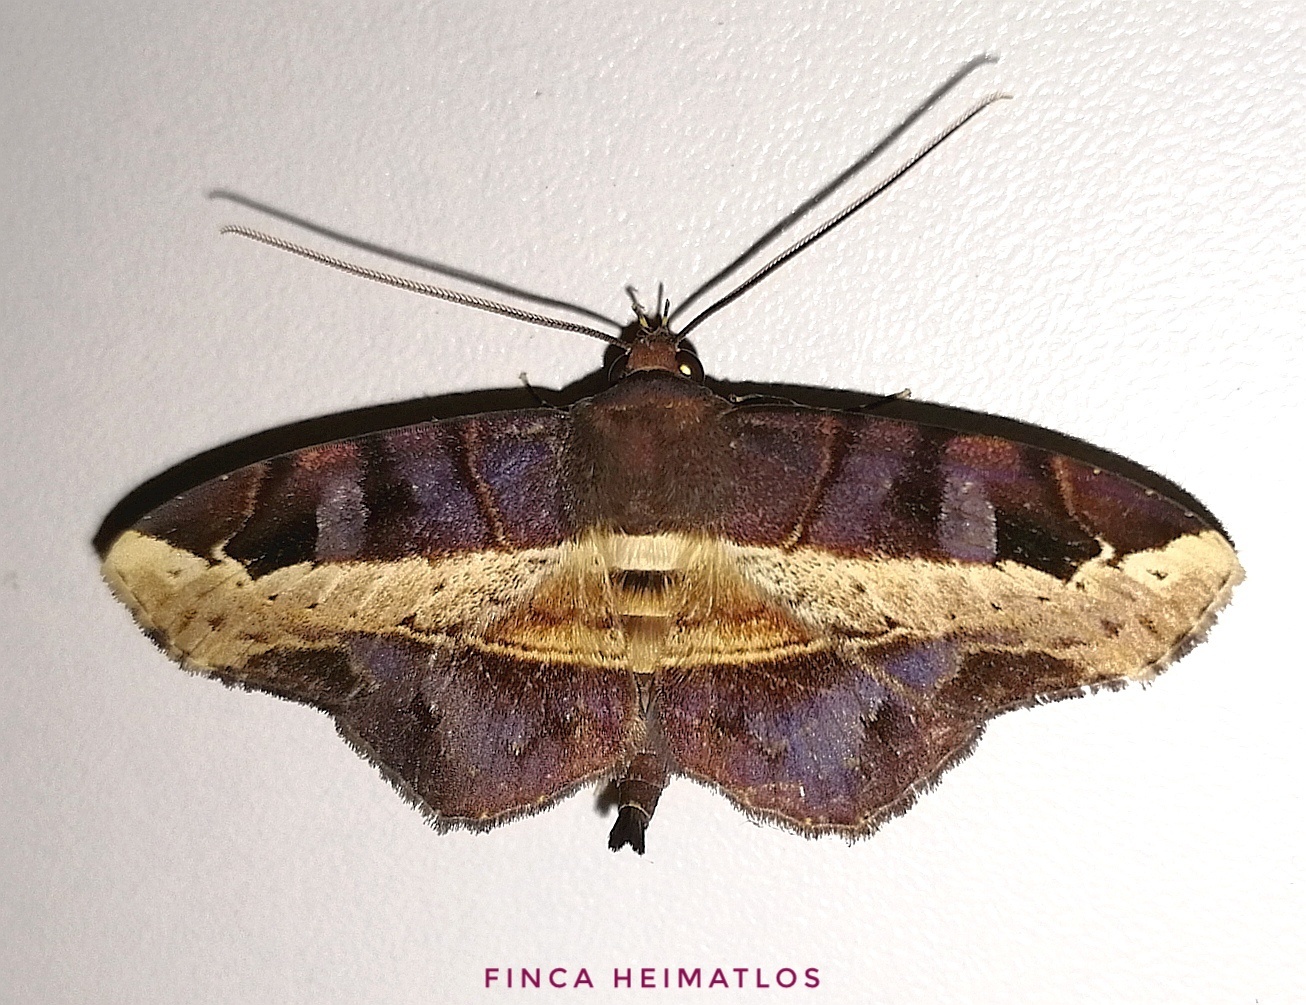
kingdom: Animalia
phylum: Arthropoda
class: Insecta
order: Lepidoptera
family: Erebidae
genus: Vogia
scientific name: Vogia mimica
